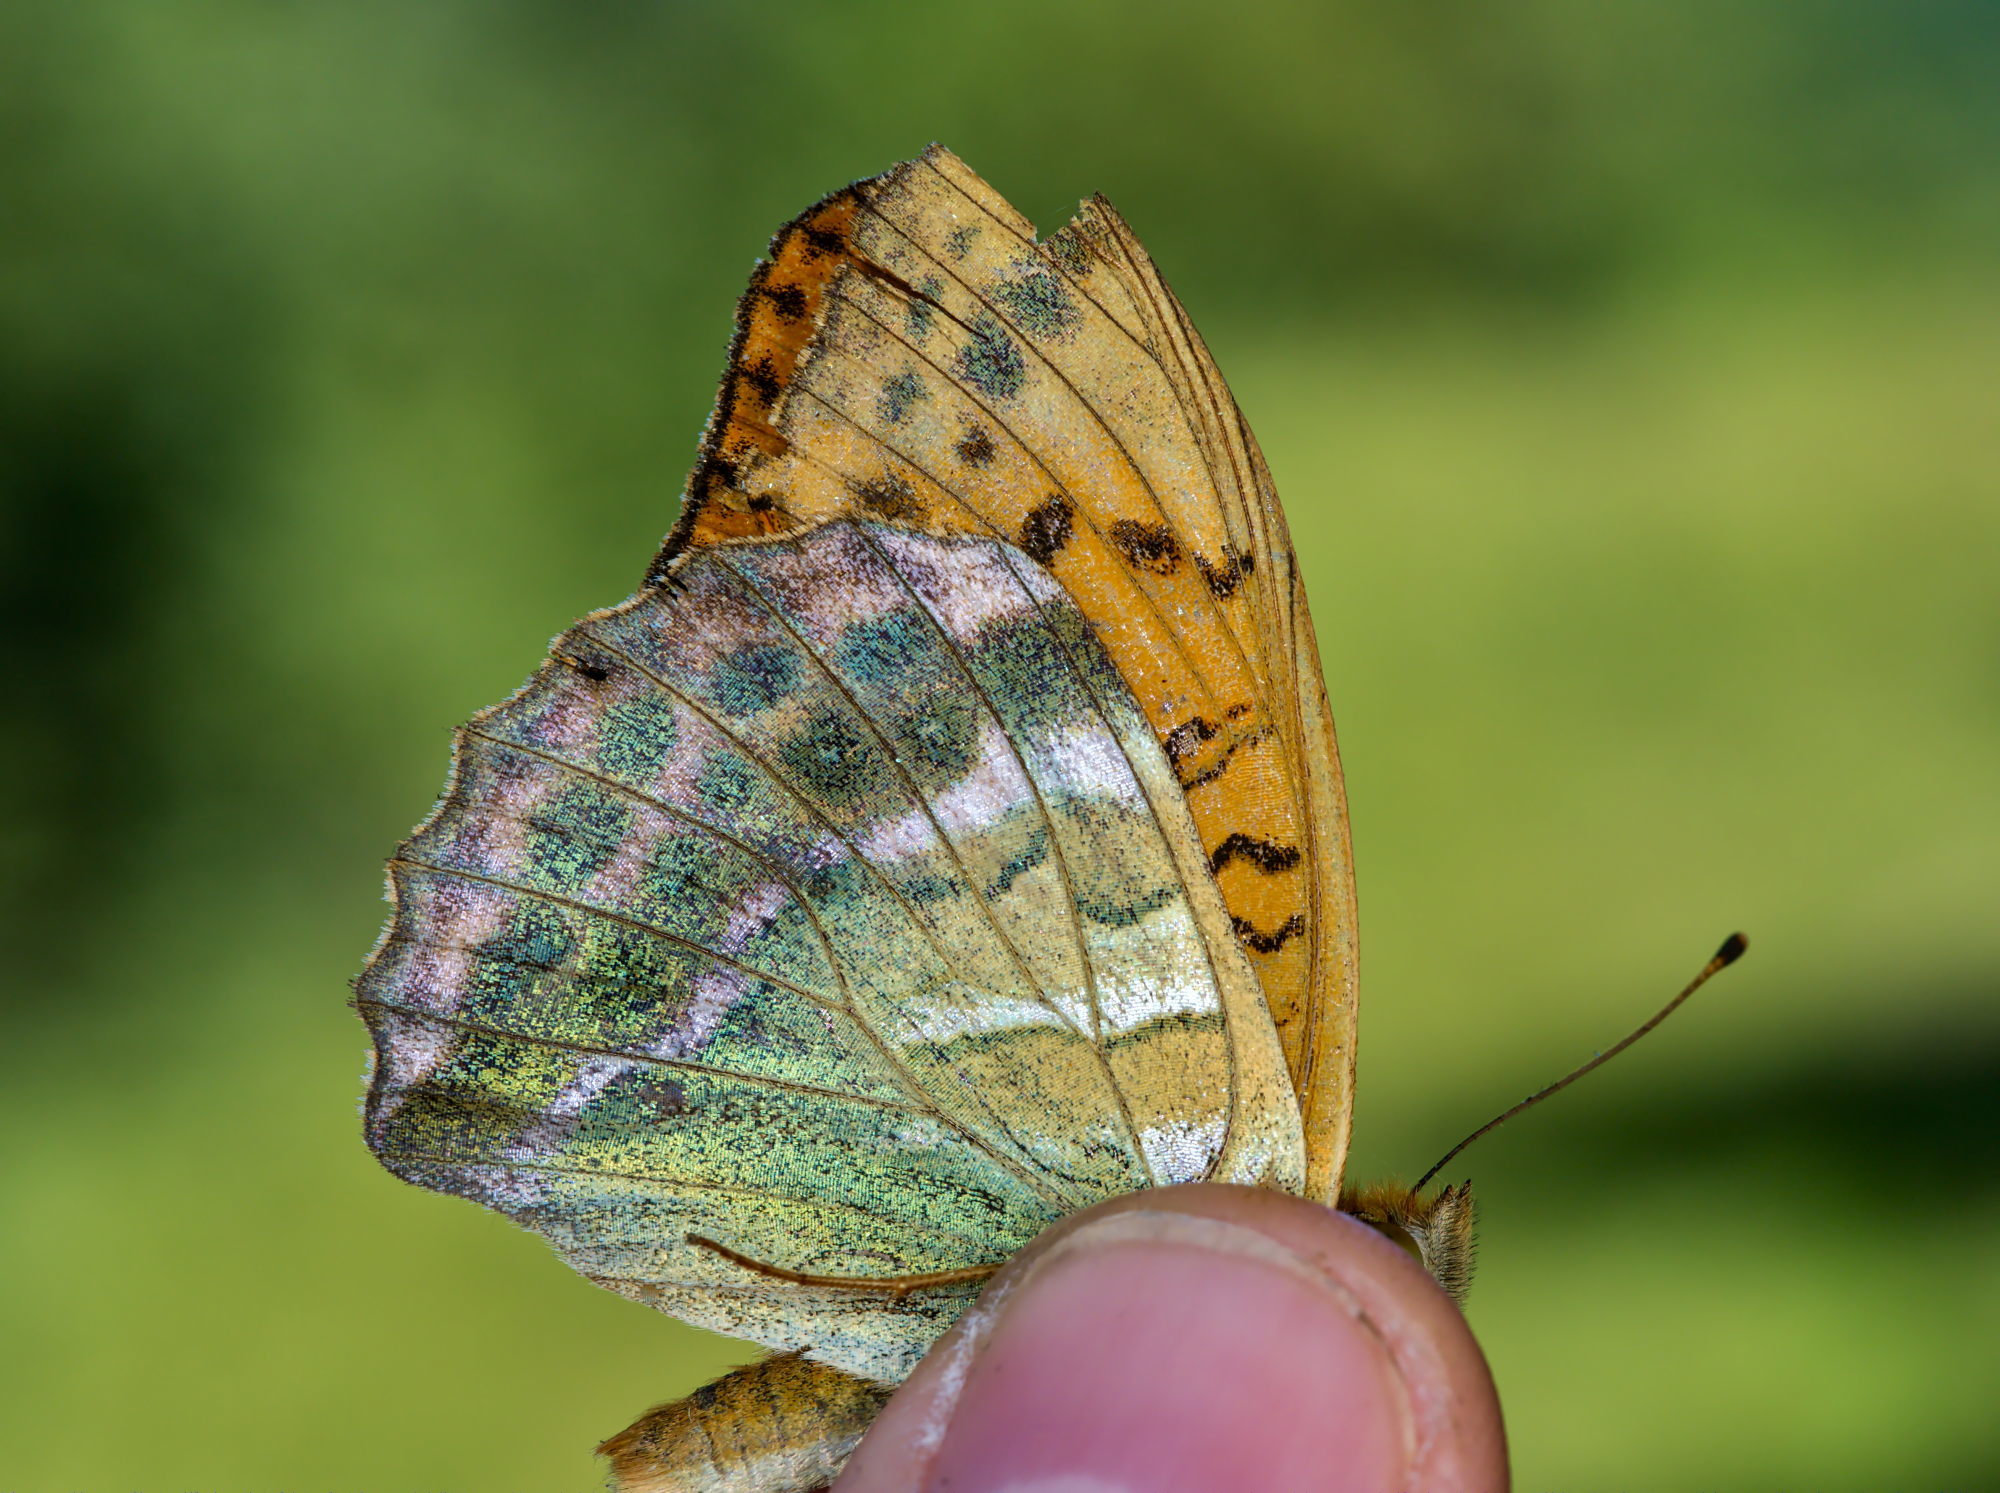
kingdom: Animalia
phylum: Arthropoda
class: Insecta
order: Lepidoptera
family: Nymphalidae
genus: Argynnis
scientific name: Argynnis paphia
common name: Silver-washed fritillary
